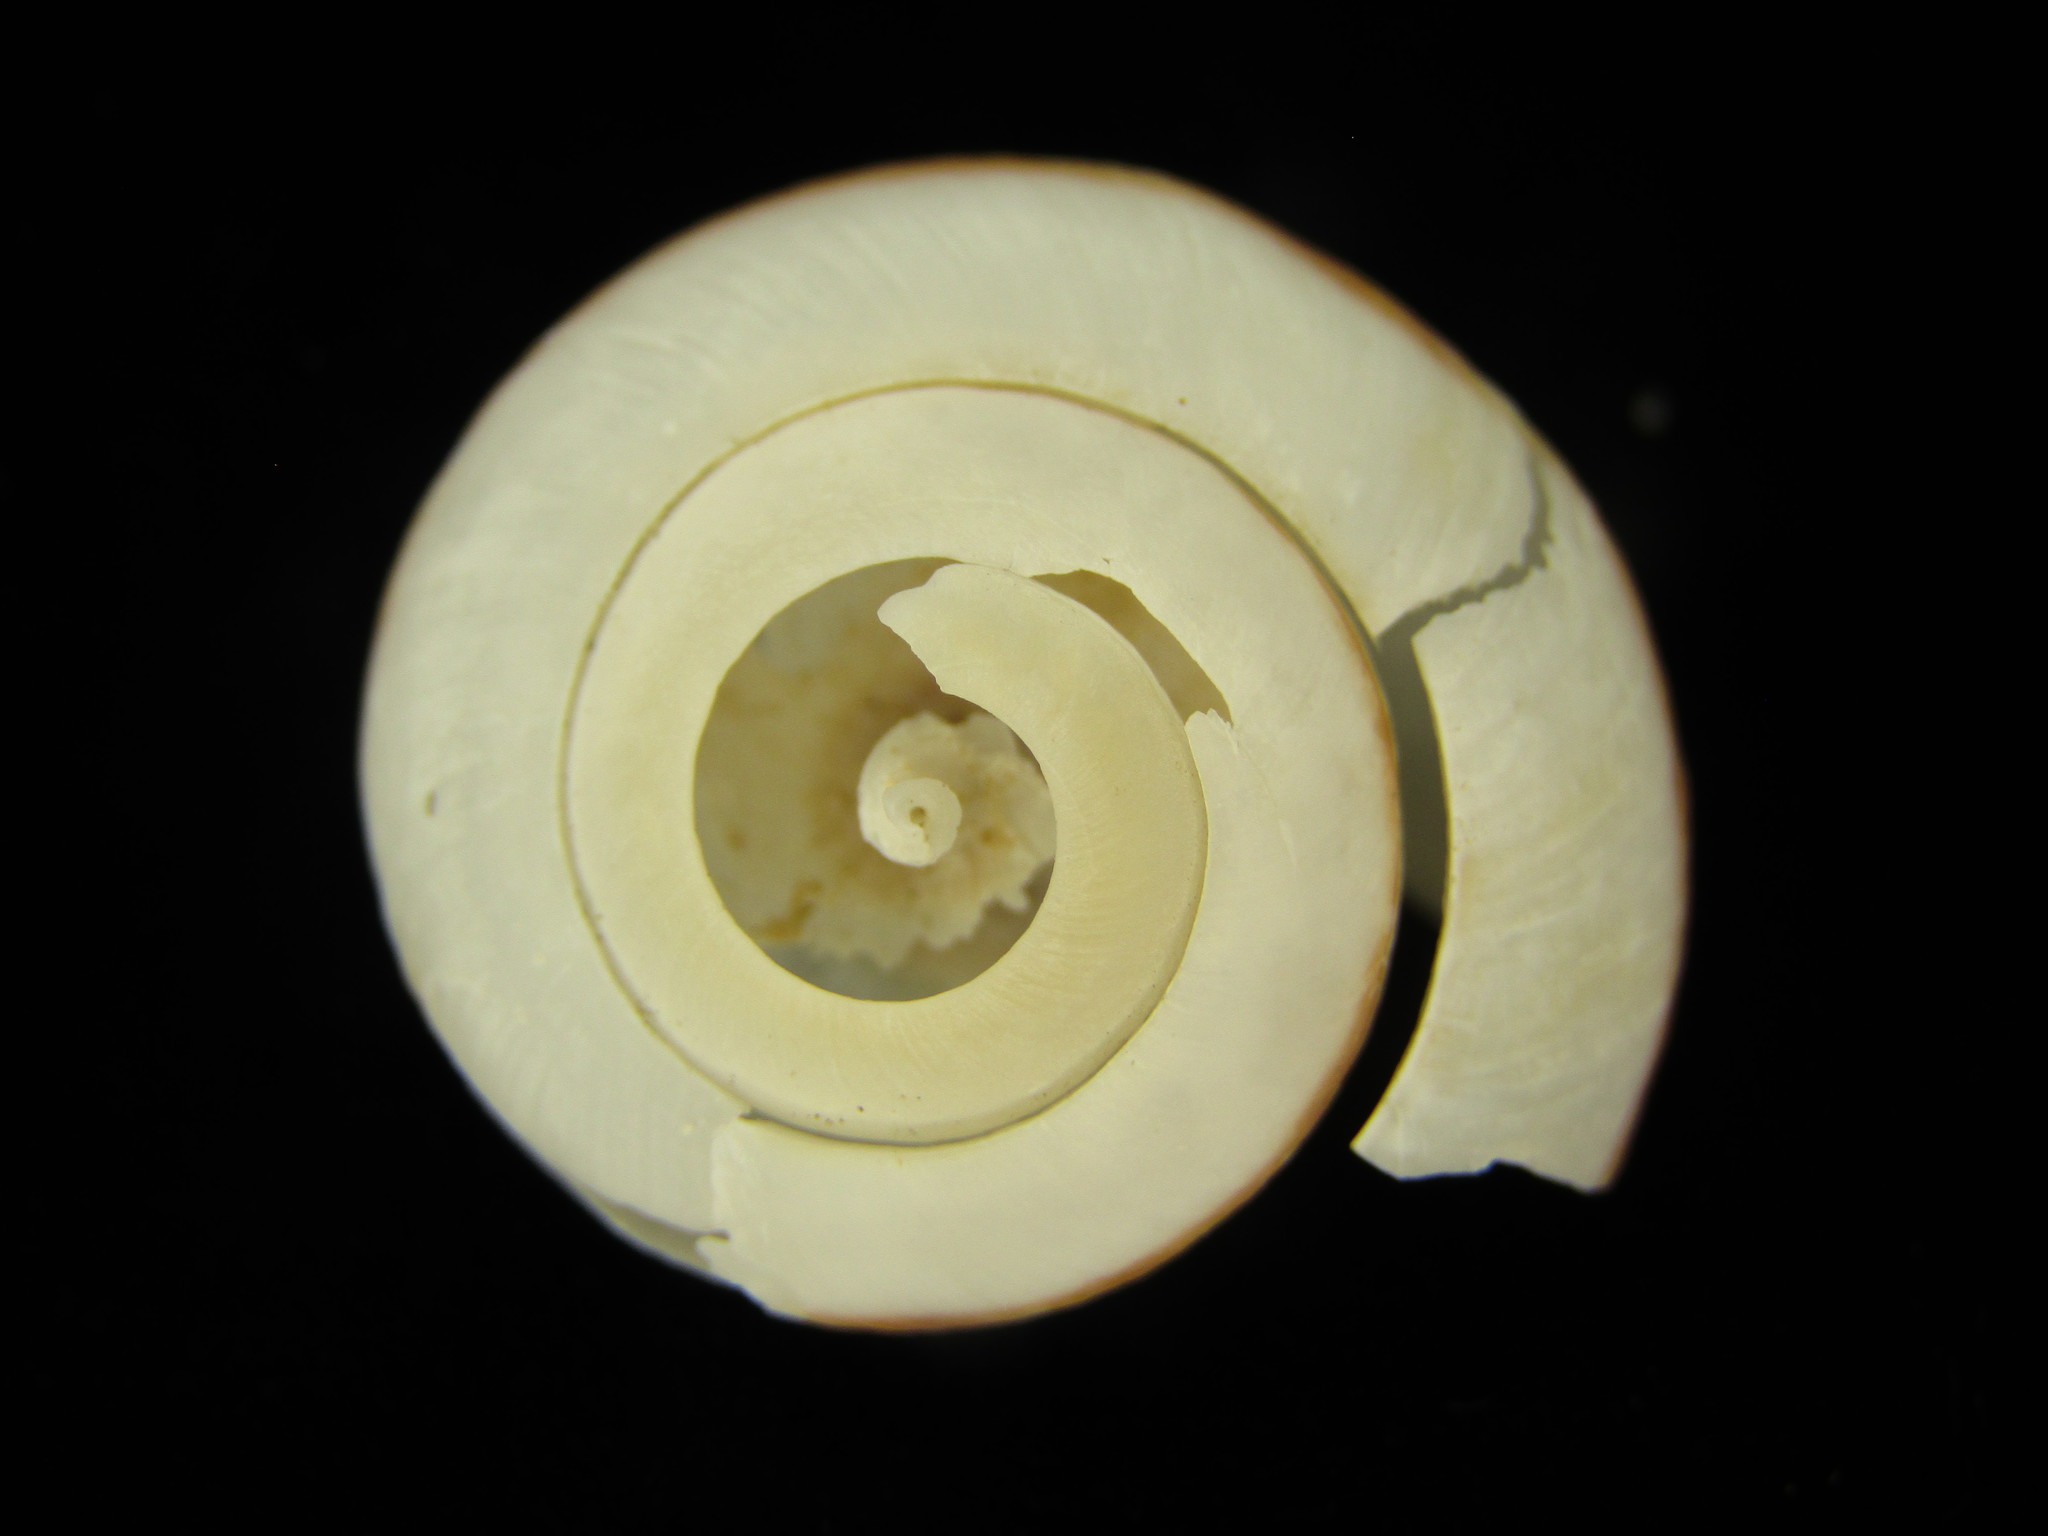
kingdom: Animalia
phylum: Mollusca
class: Gastropoda
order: Stylommatophora
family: Camaenidae
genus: Euhadra
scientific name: Euhadra senckenbergiana
